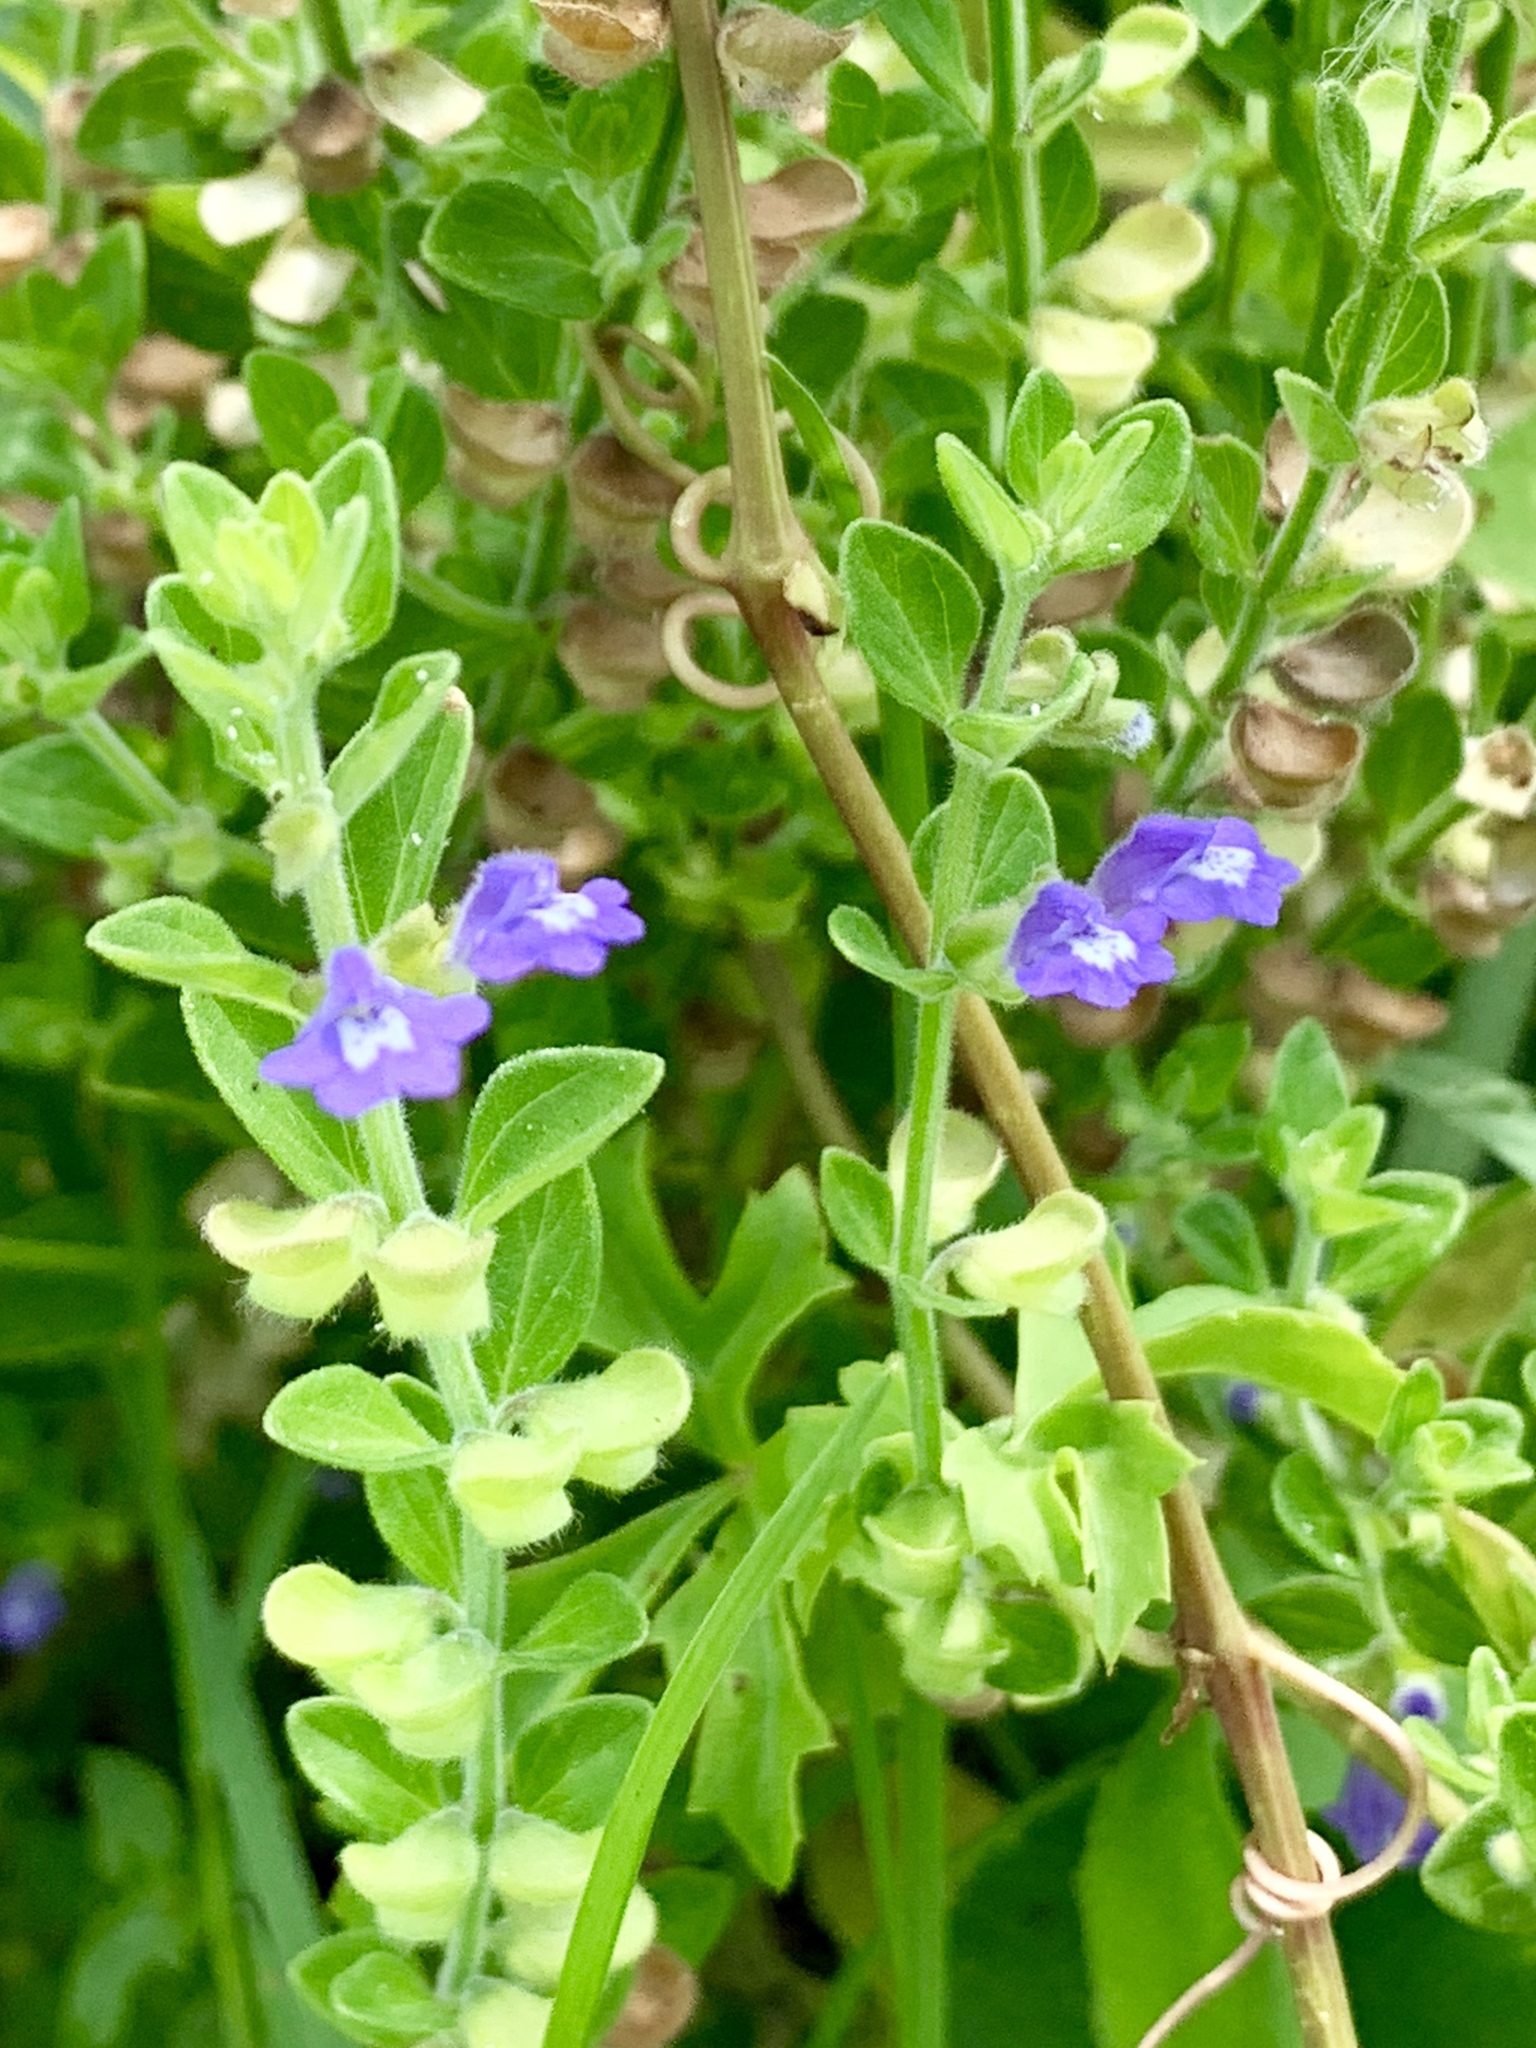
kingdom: Plantae
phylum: Tracheophyta
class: Magnoliopsida
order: Lamiales
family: Lamiaceae
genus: Scutellaria
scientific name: Scutellaria drummondii
